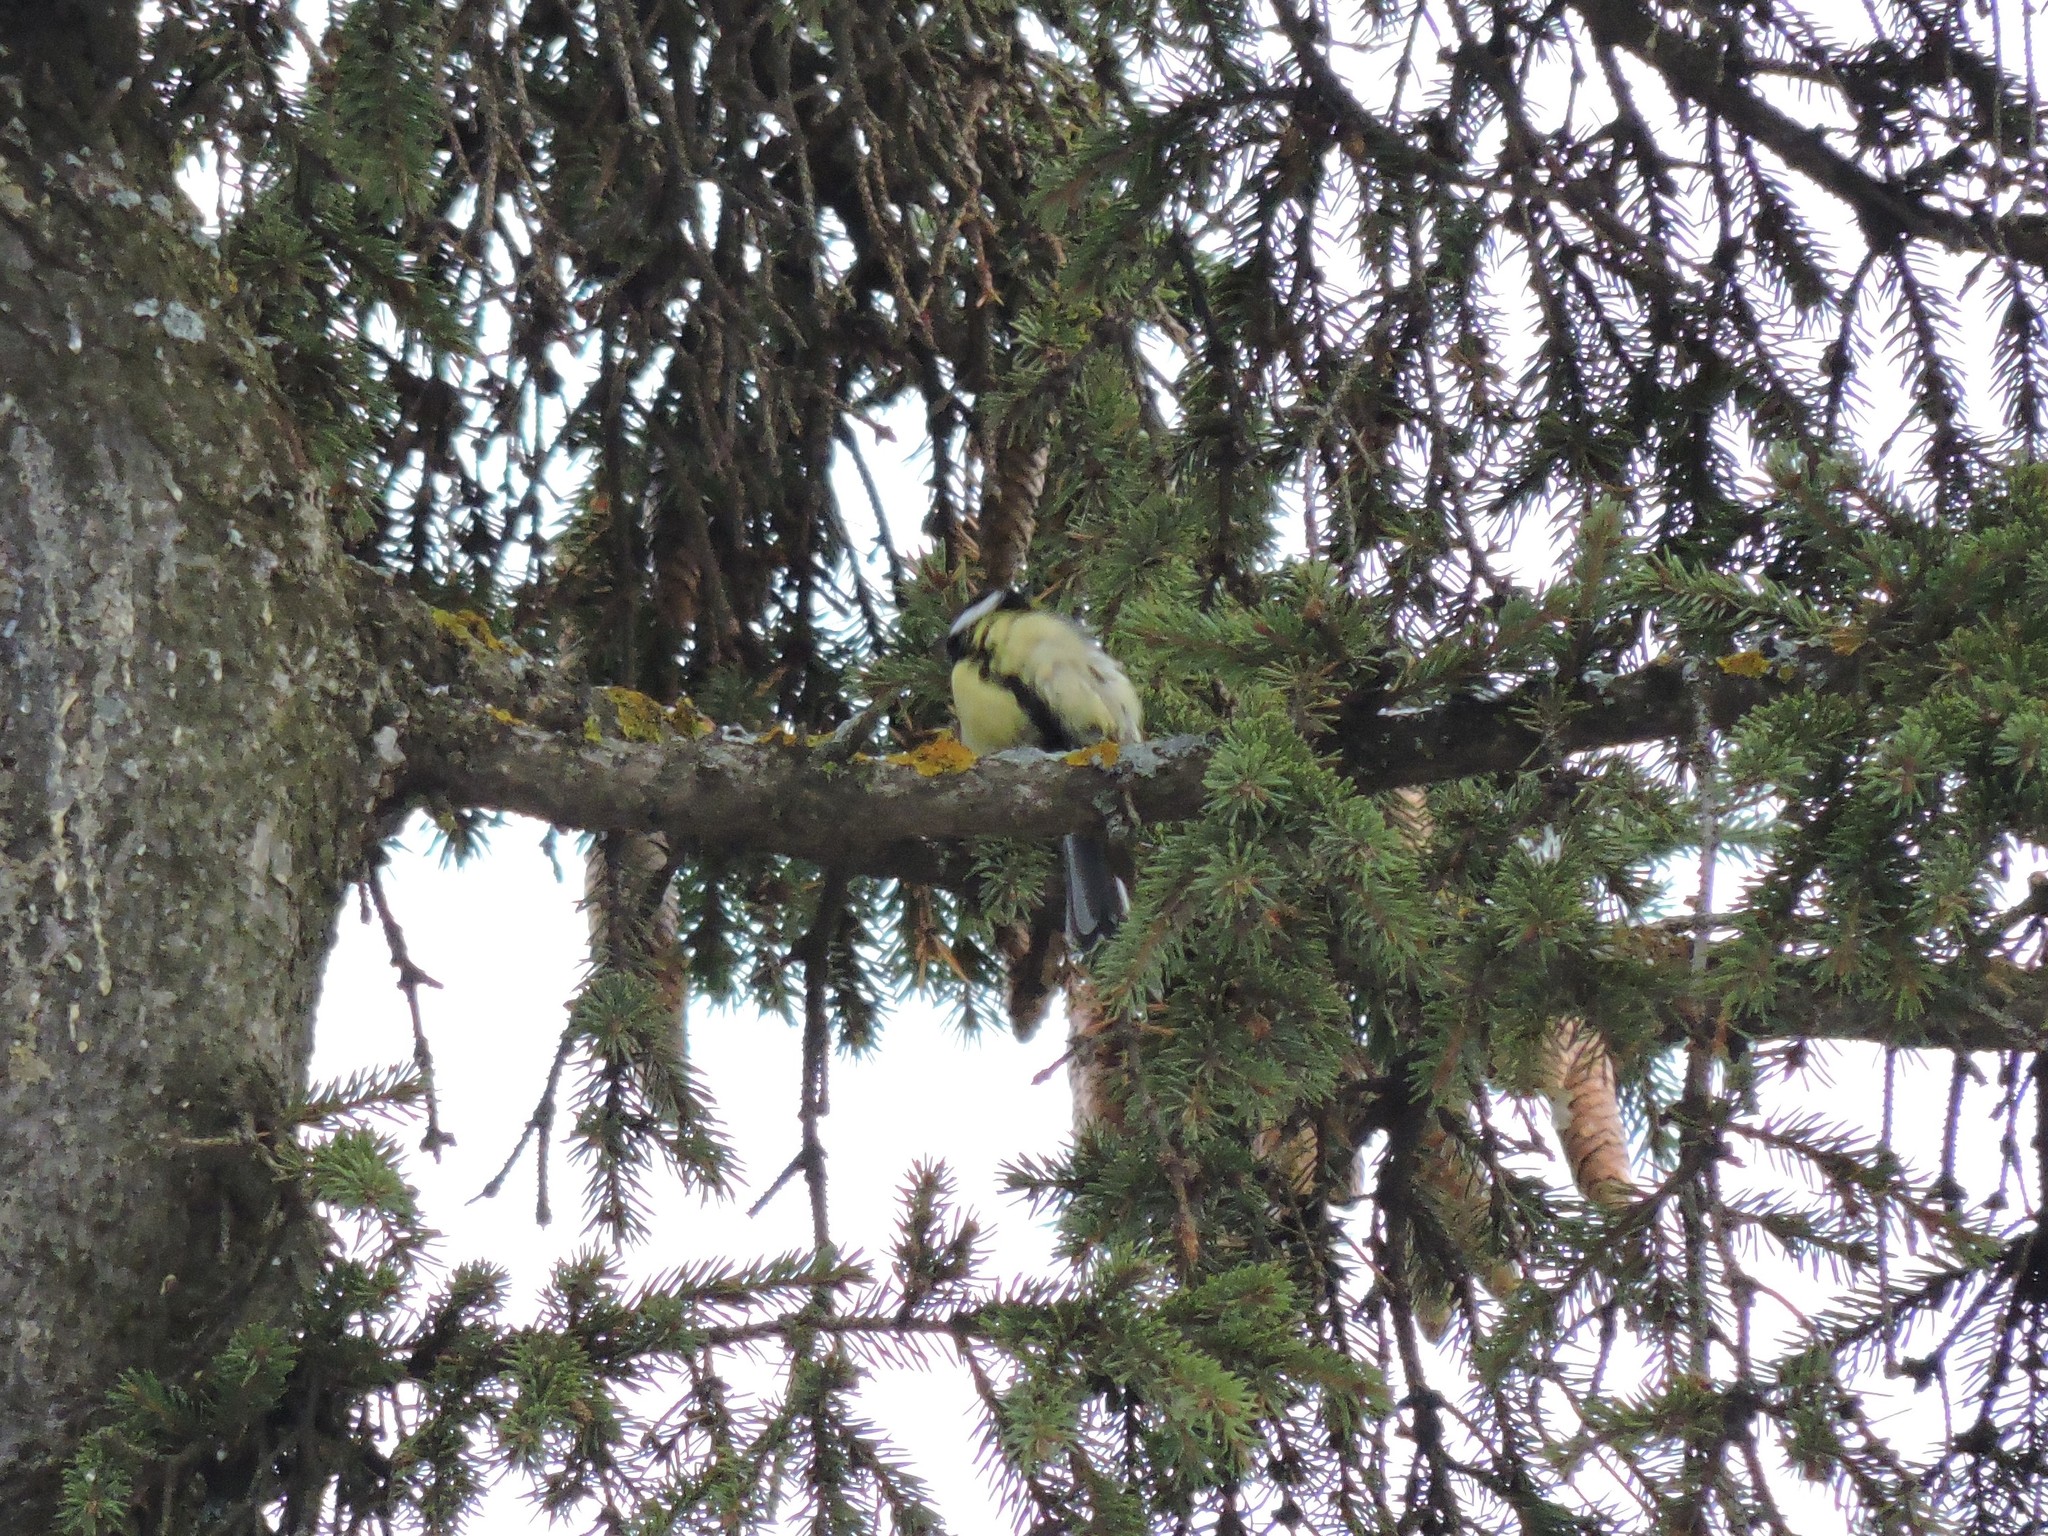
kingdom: Animalia
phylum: Chordata
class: Aves
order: Passeriformes
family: Paridae
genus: Parus
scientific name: Parus major
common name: Great tit
